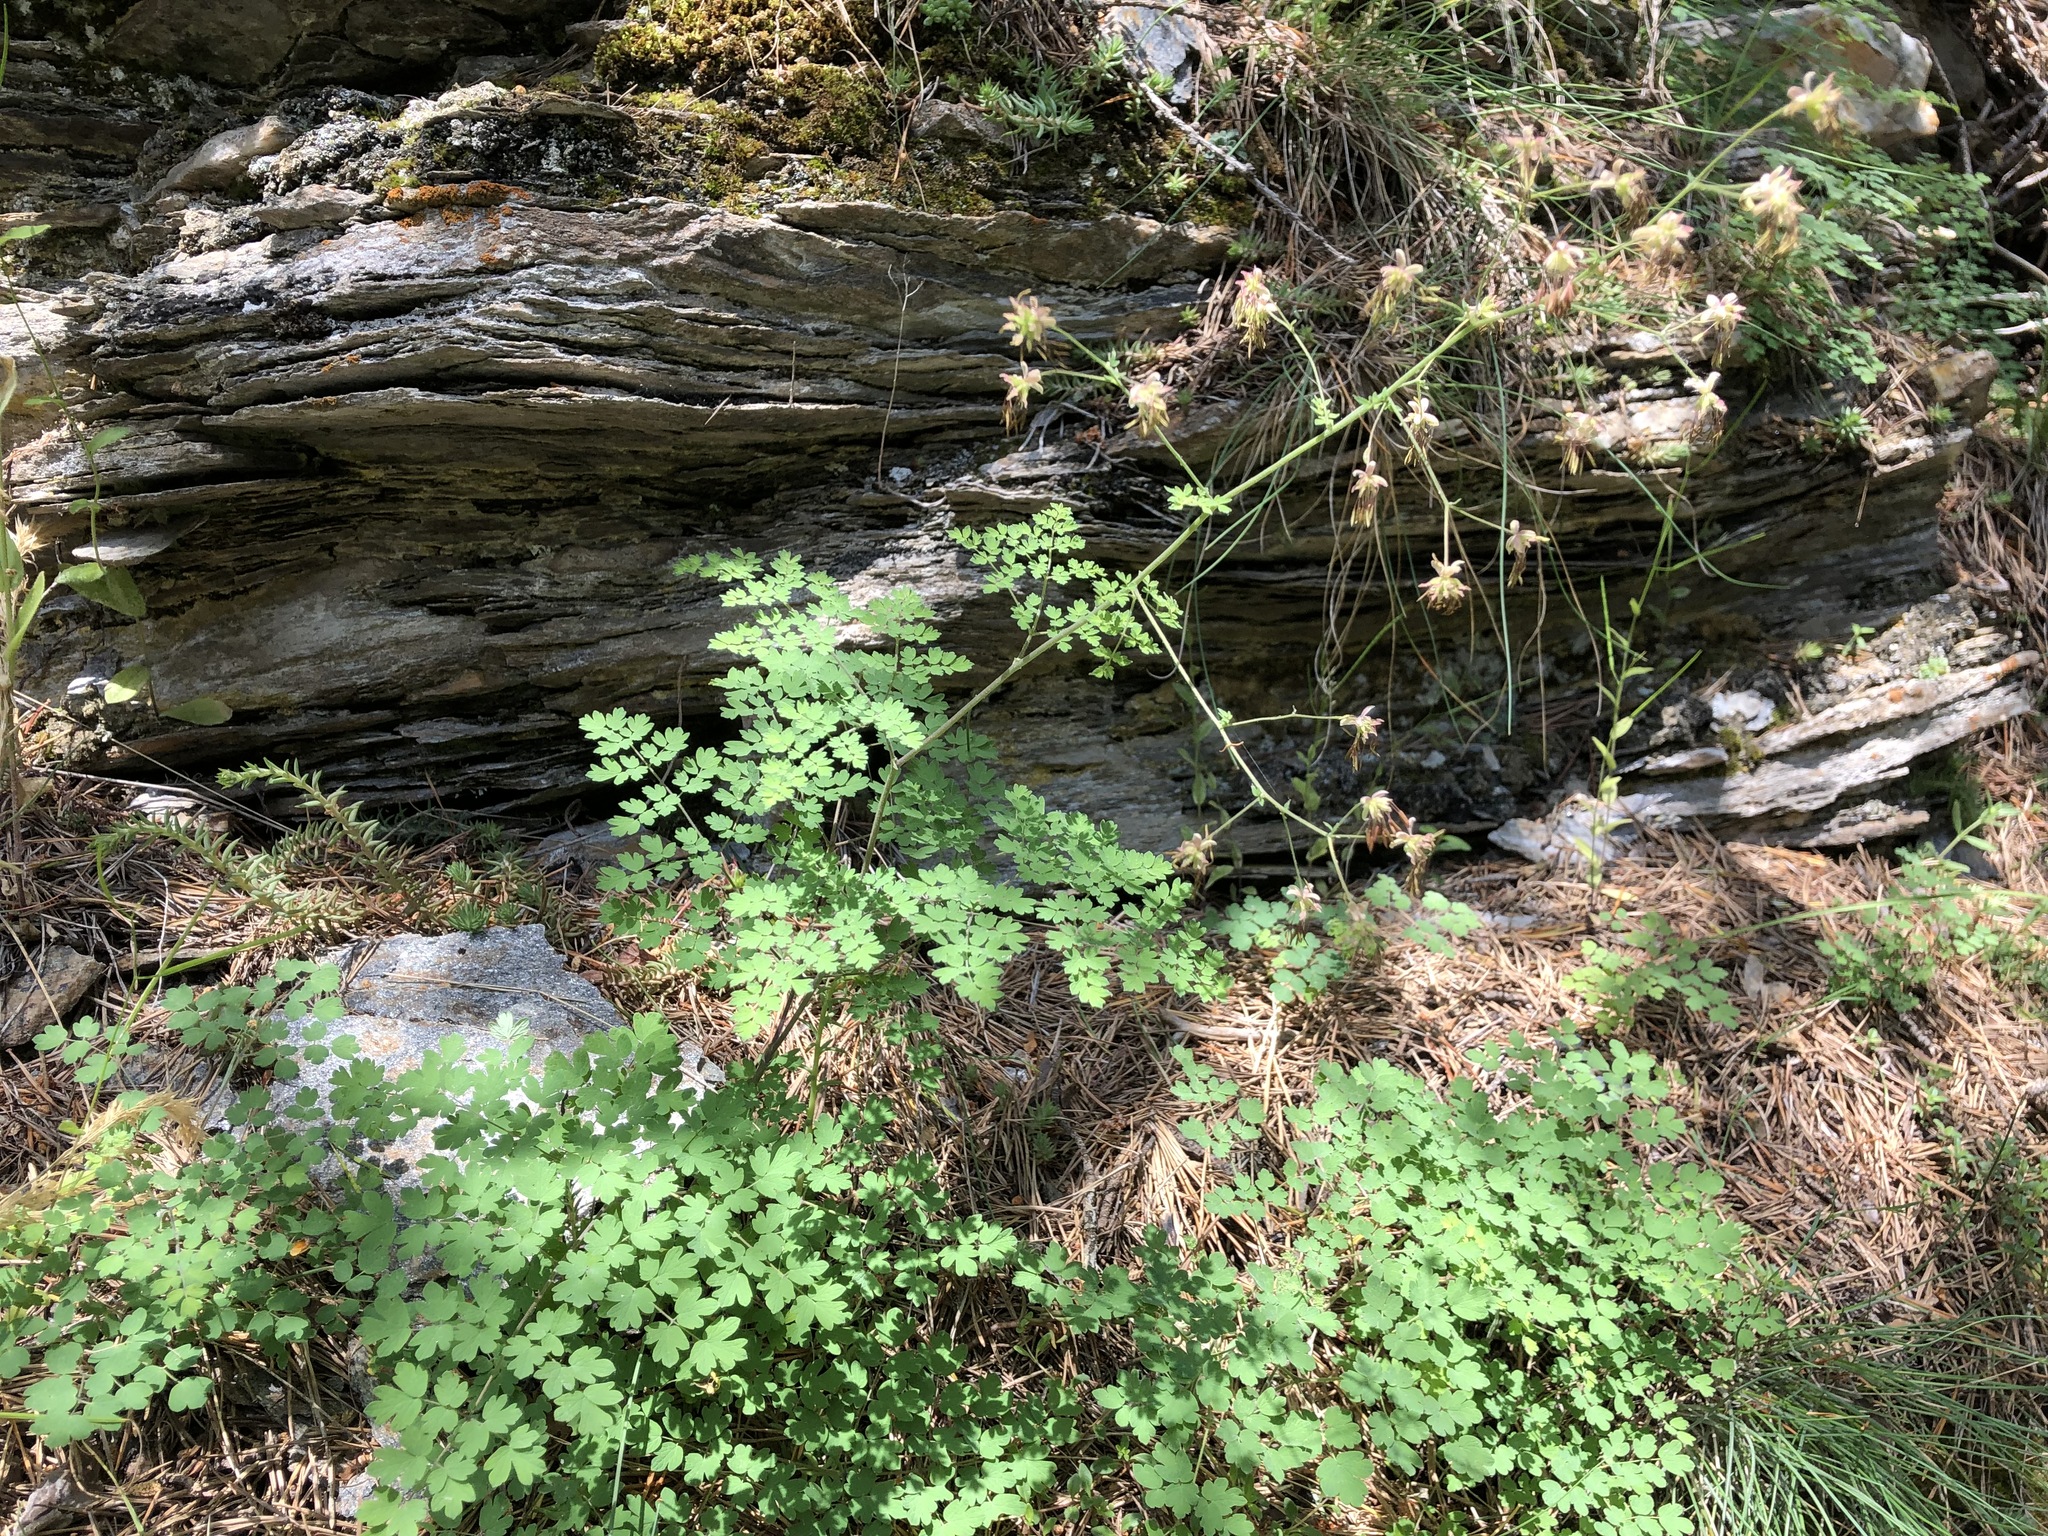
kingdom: Plantae
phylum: Tracheophyta
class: Magnoliopsida
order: Ranunculales
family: Ranunculaceae
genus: Thalictrum
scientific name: Thalictrum minus
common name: Lesser meadow-rue
